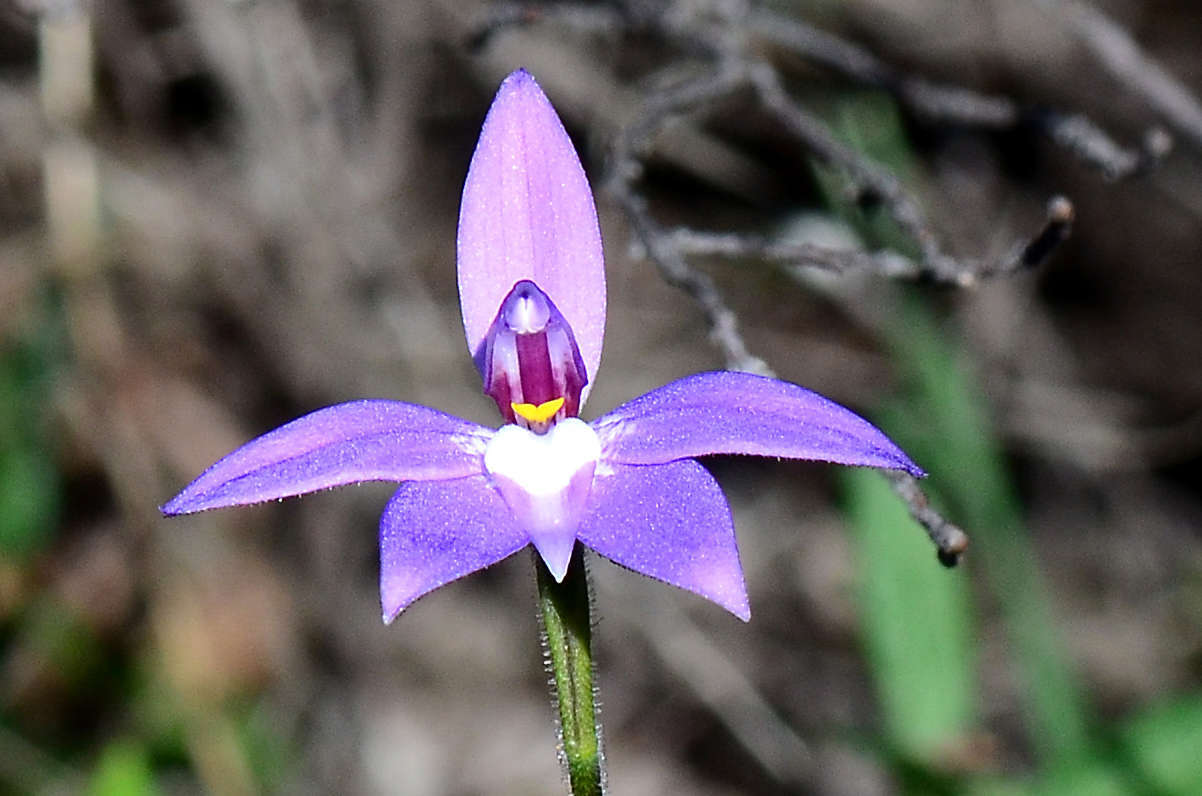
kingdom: Plantae
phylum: Tracheophyta
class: Liliopsida
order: Asparagales
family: Orchidaceae
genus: Caladenia
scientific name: Caladenia major
